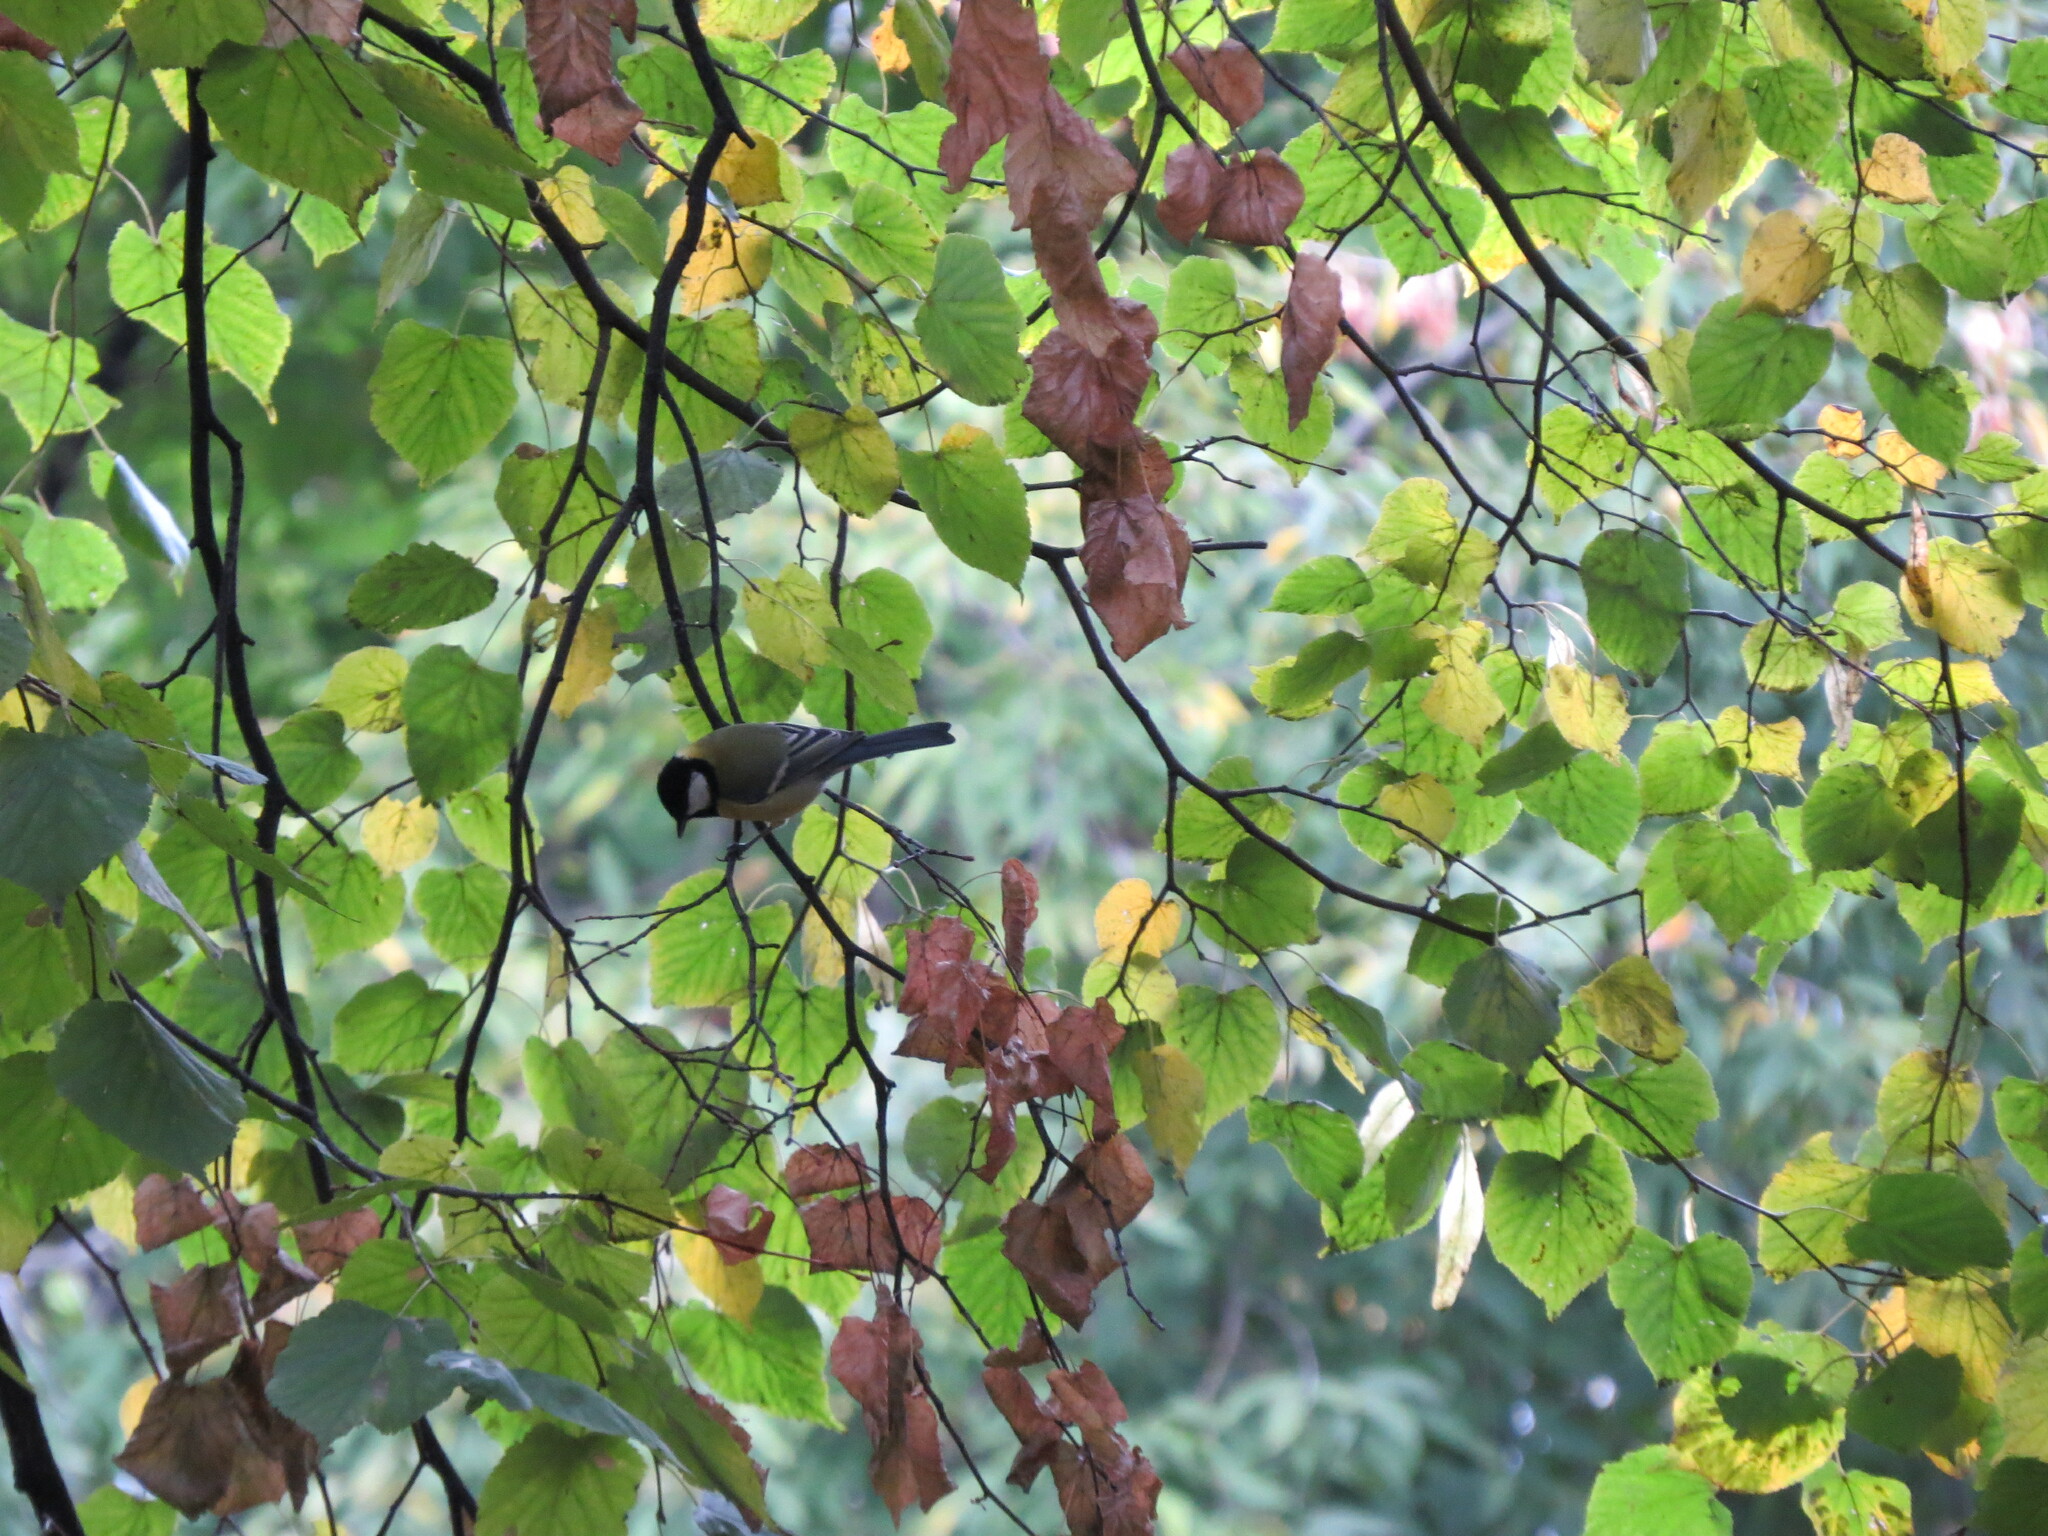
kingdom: Animalia
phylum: Chordata
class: Aves
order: Passeriformes
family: Paridae
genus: Parus
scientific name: Parus major
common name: Great tit
